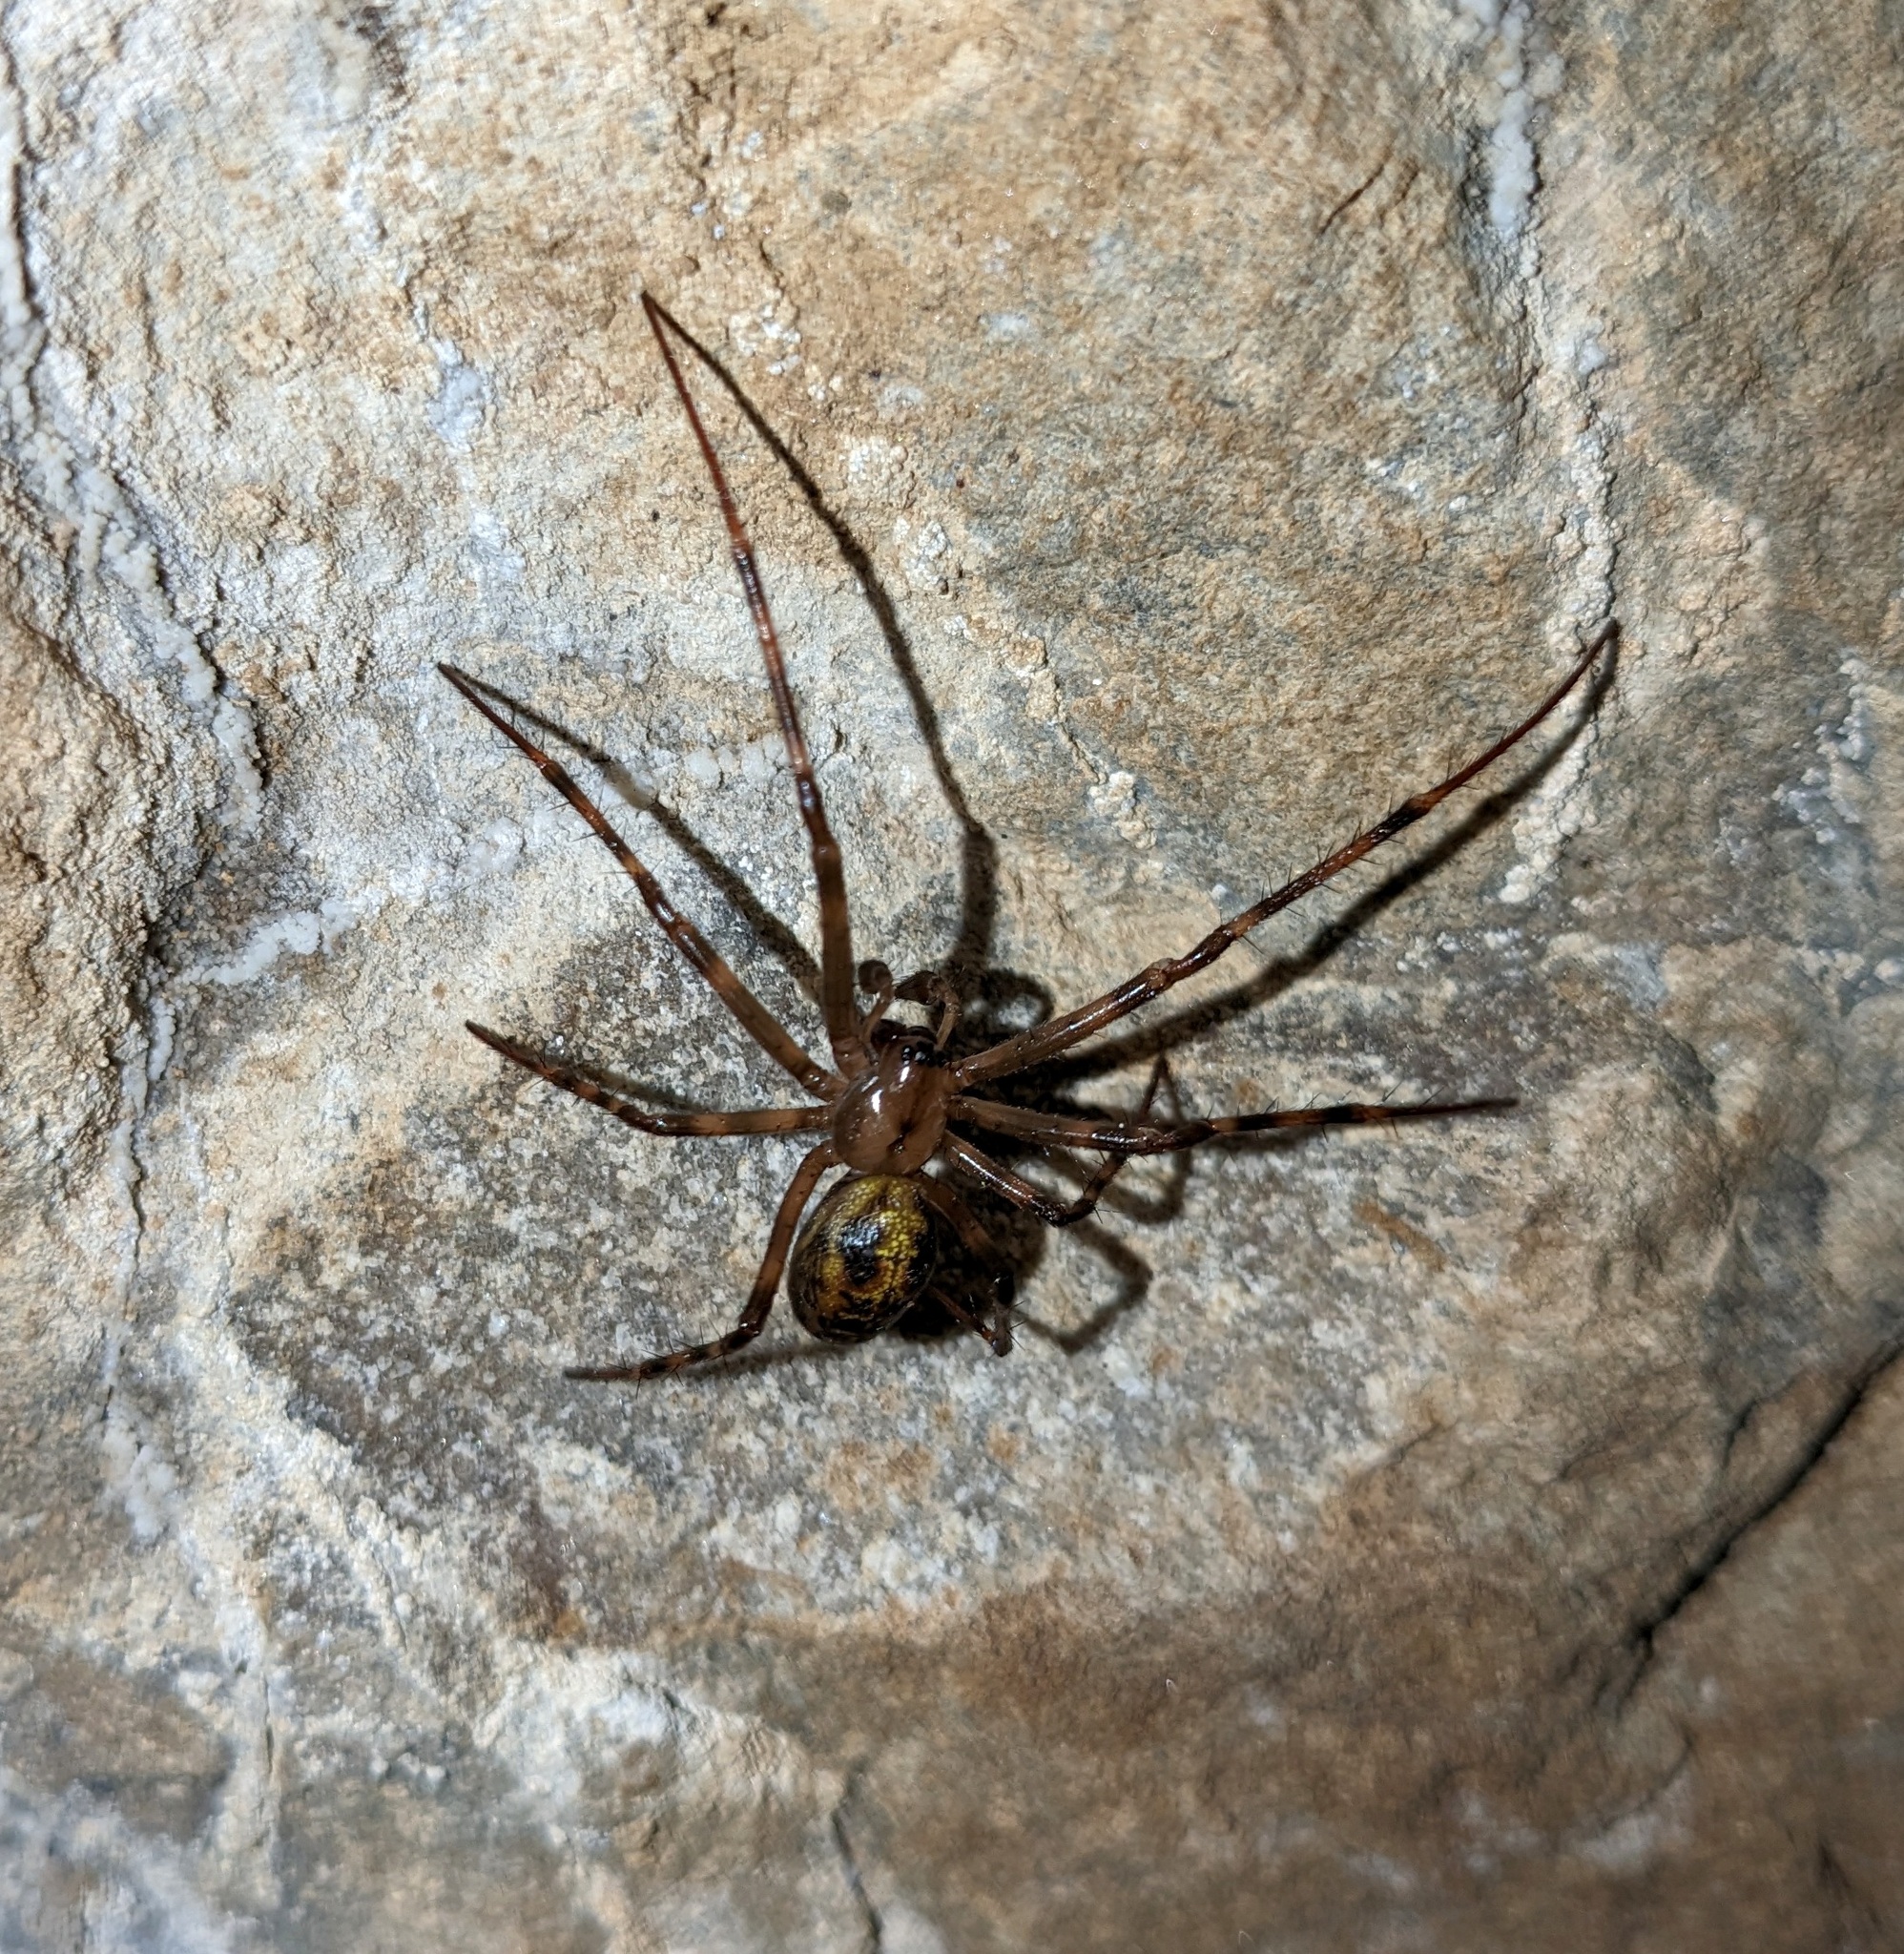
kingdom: Animalia
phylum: Arthropoda
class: Arachnida
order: Araneae
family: Tetragnathidae
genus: Meta
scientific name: Meta menardi
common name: Cave spider
